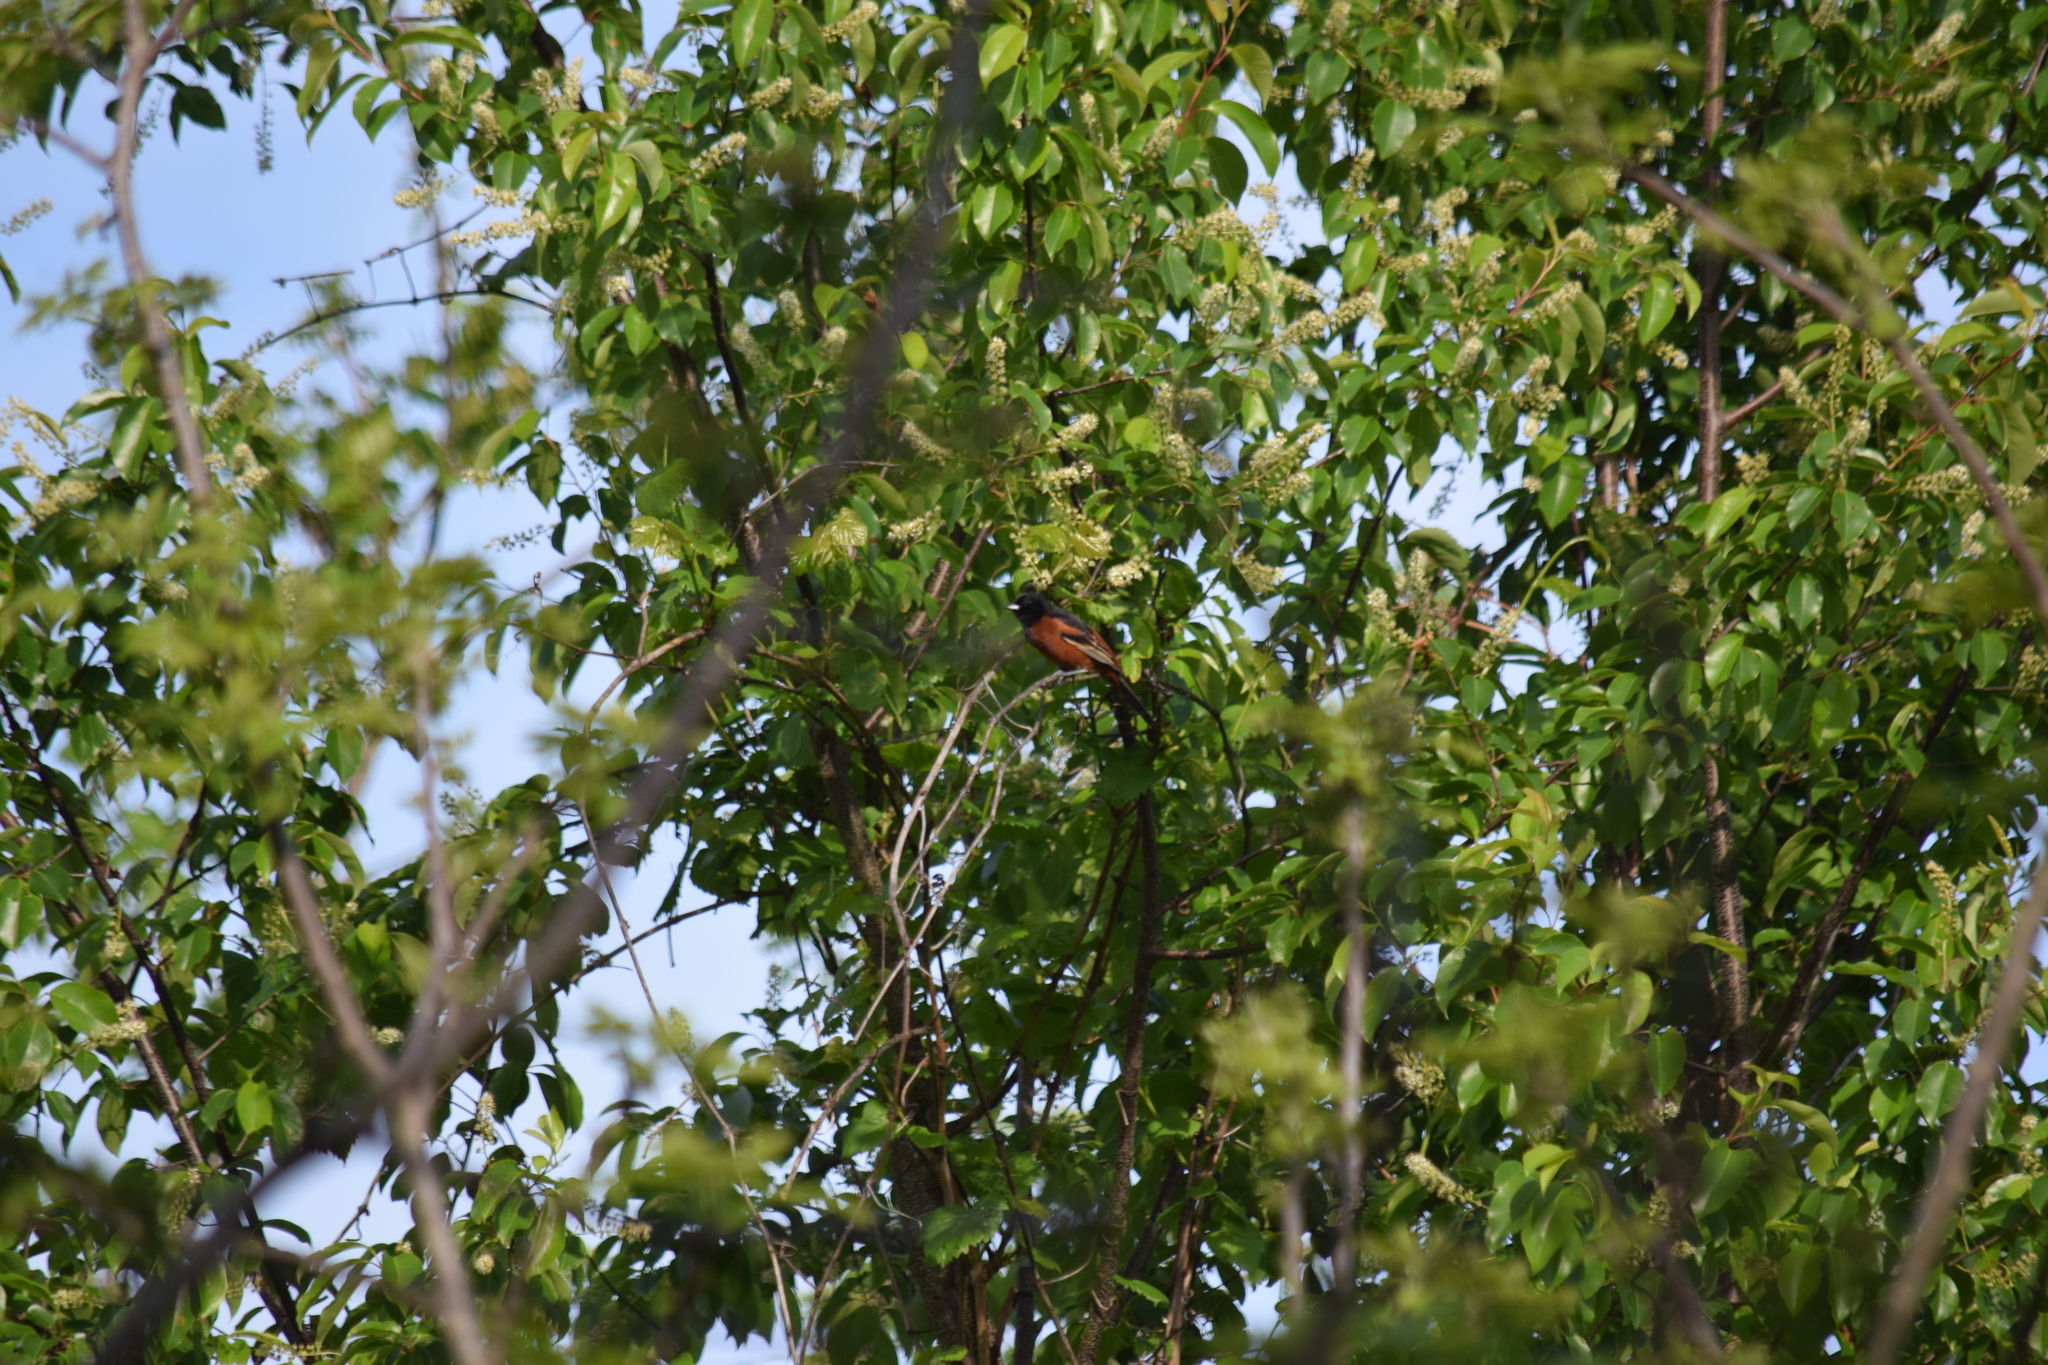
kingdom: Animalia
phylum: Chordata
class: Aves
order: Passeriformes
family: Icteridae
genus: Icterus
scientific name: Icterus spurius
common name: Orchard oriole
